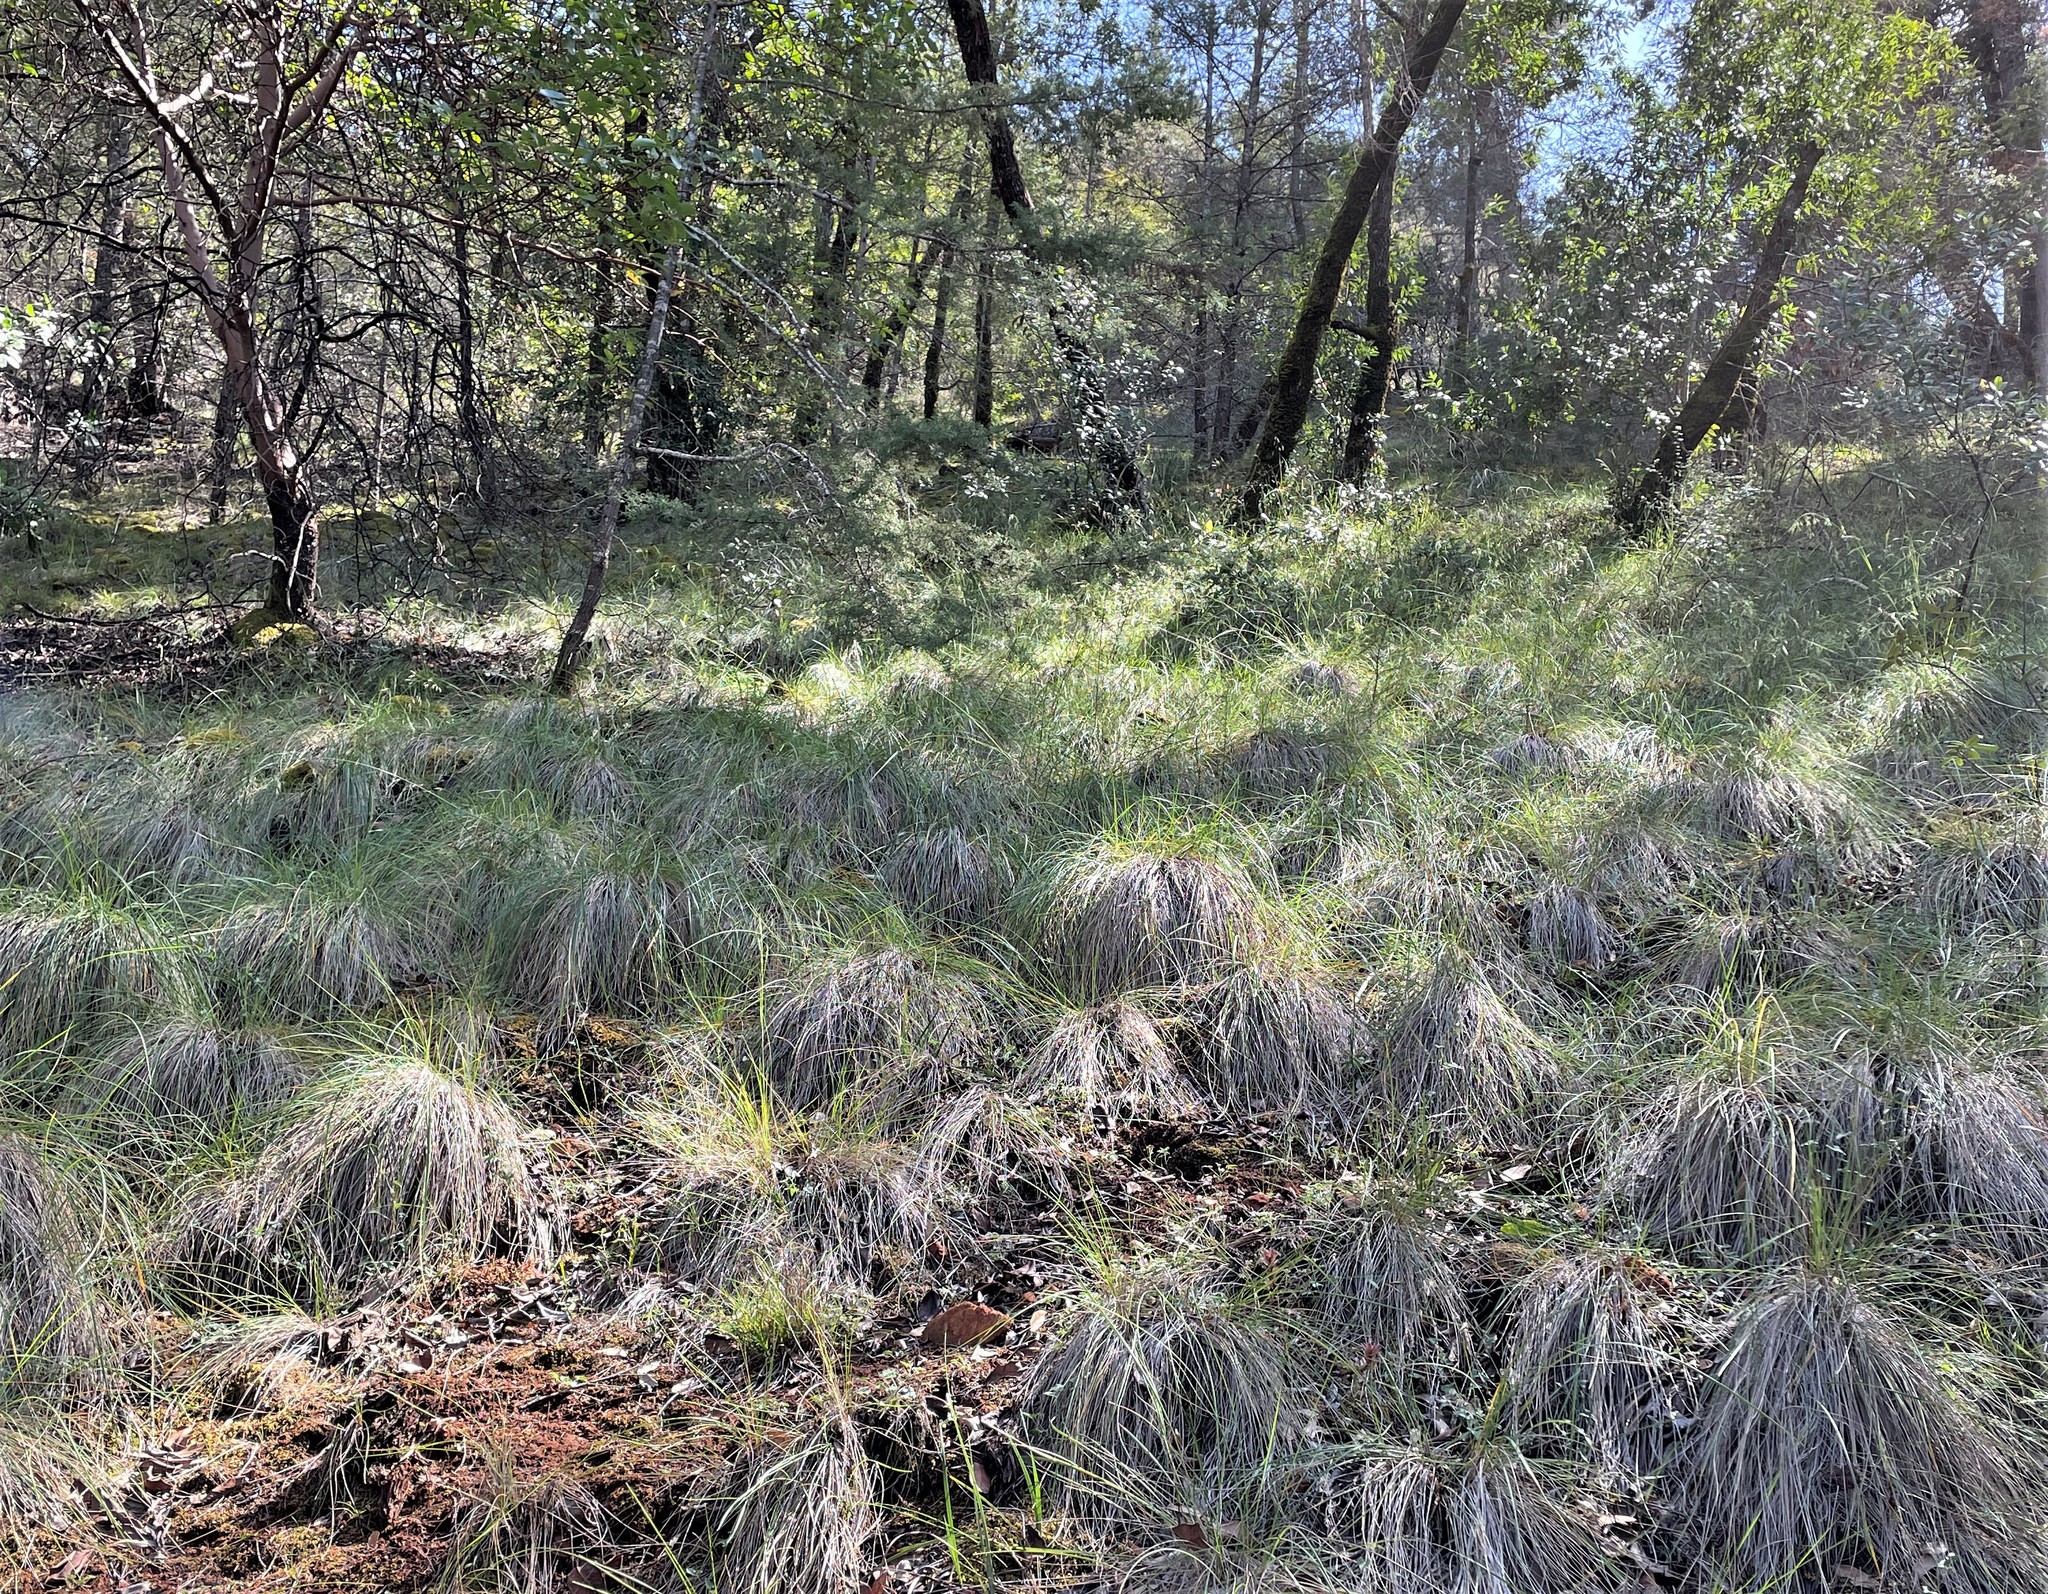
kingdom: Plantae
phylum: Tracheophyta
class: Liliopsida
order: Poales
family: Poaceae
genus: Festuca
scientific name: Festuca californica
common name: California fescue
